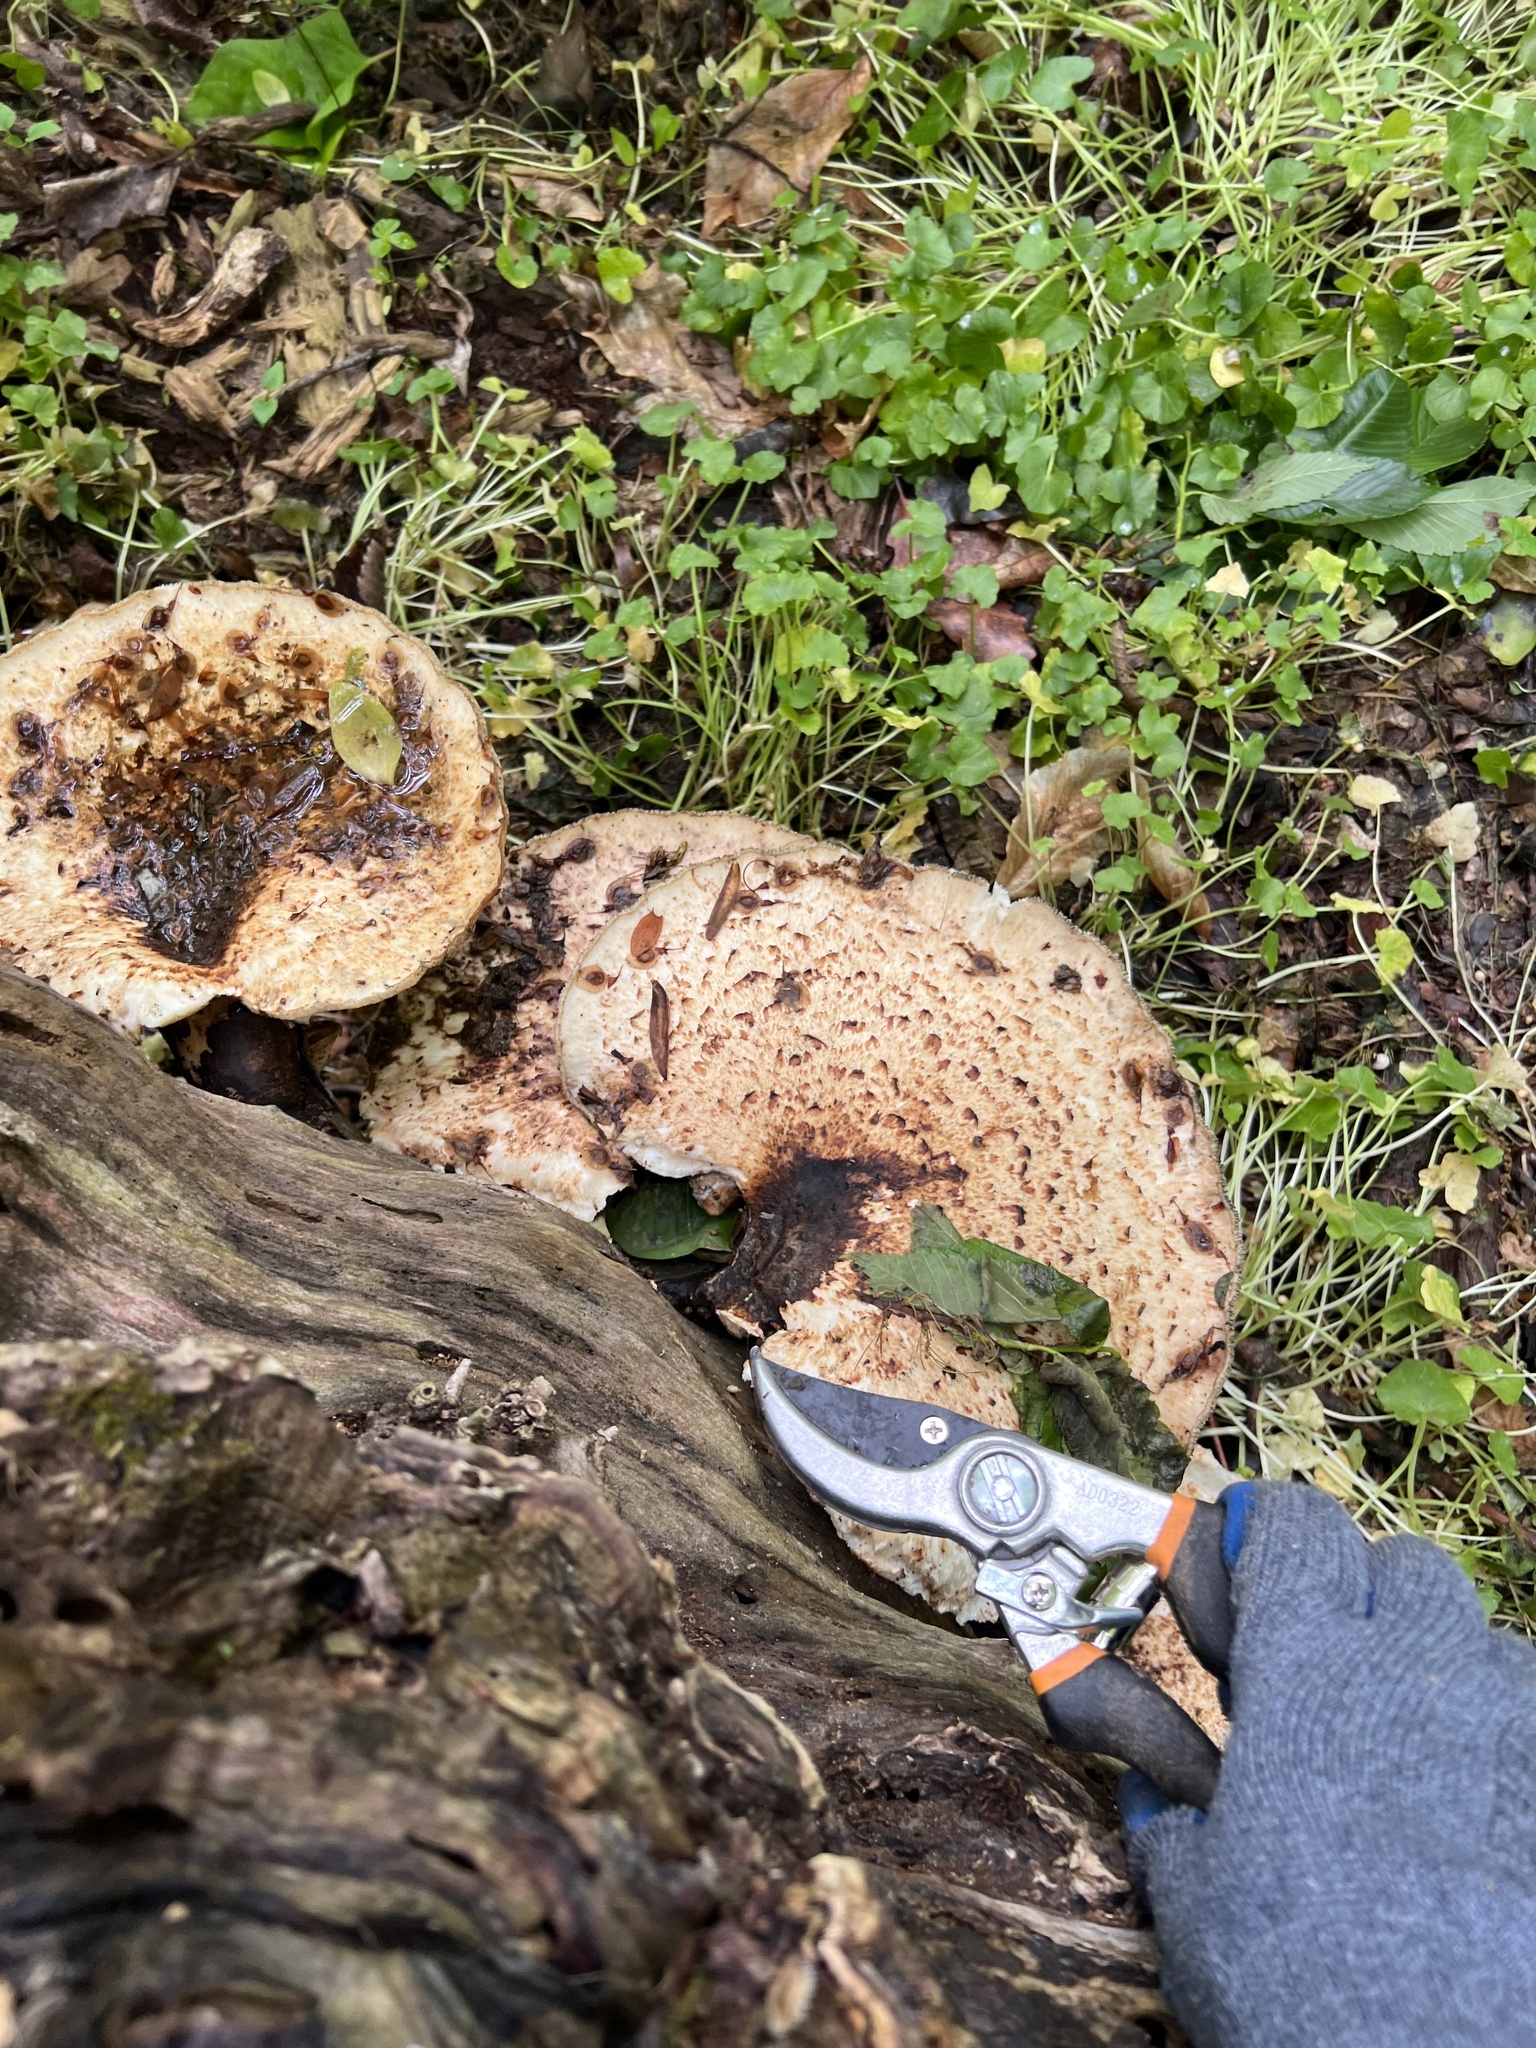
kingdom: Fungi
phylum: Basidiomycota
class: Agaricomycetes
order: Polyporales
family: Polyporaceae
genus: Cerioporus
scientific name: Cerioporus squamosus
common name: Dryad's saddle
